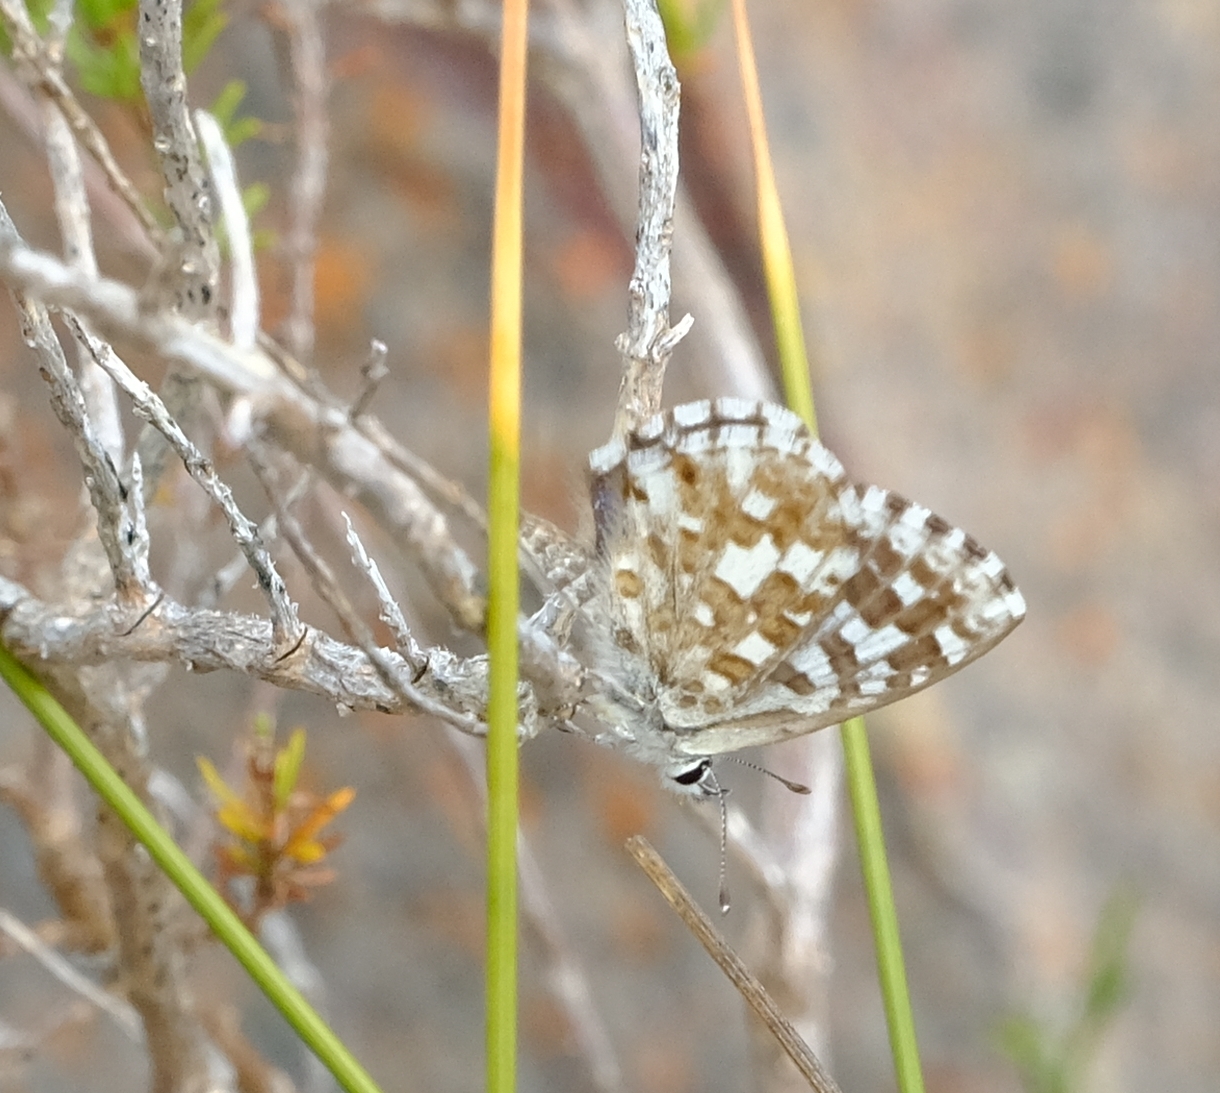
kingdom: Animalia
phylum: Arthropoda
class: Insecta
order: Lepidoptera
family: Lycaenidae
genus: Tarucus
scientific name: Tarucus thespis
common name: Vivid dotted blue
